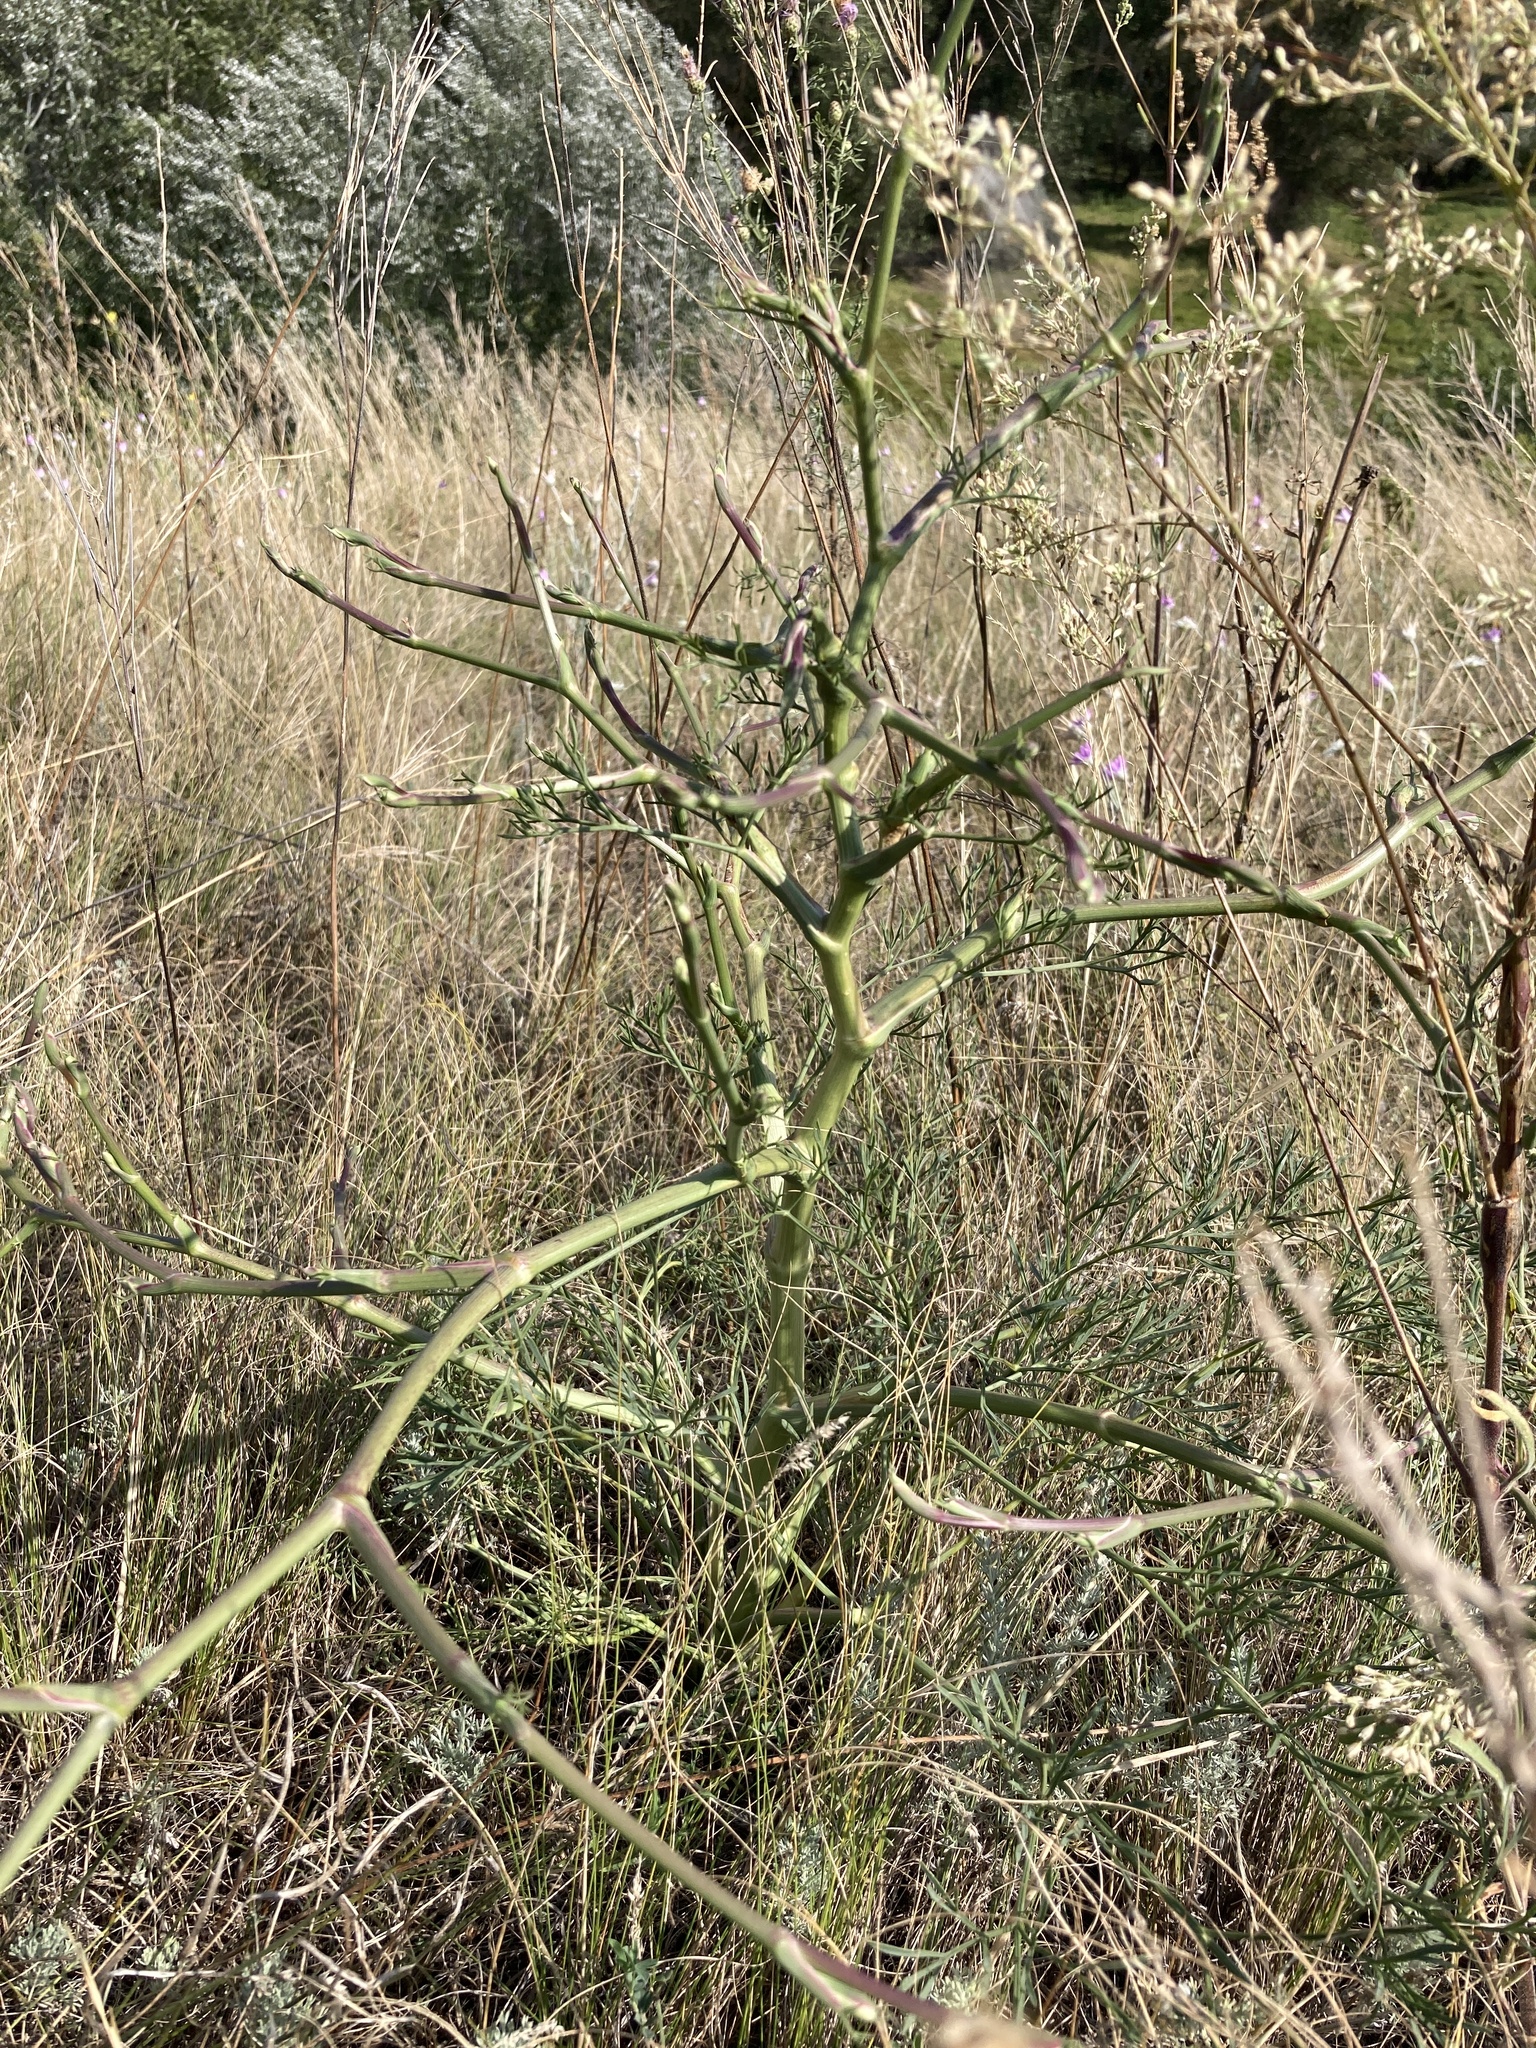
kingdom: Plantae
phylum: Tracheophyta
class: Magnoliopsida
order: Apiales
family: Apiaceae
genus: Seseli
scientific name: Seseli arenarium
